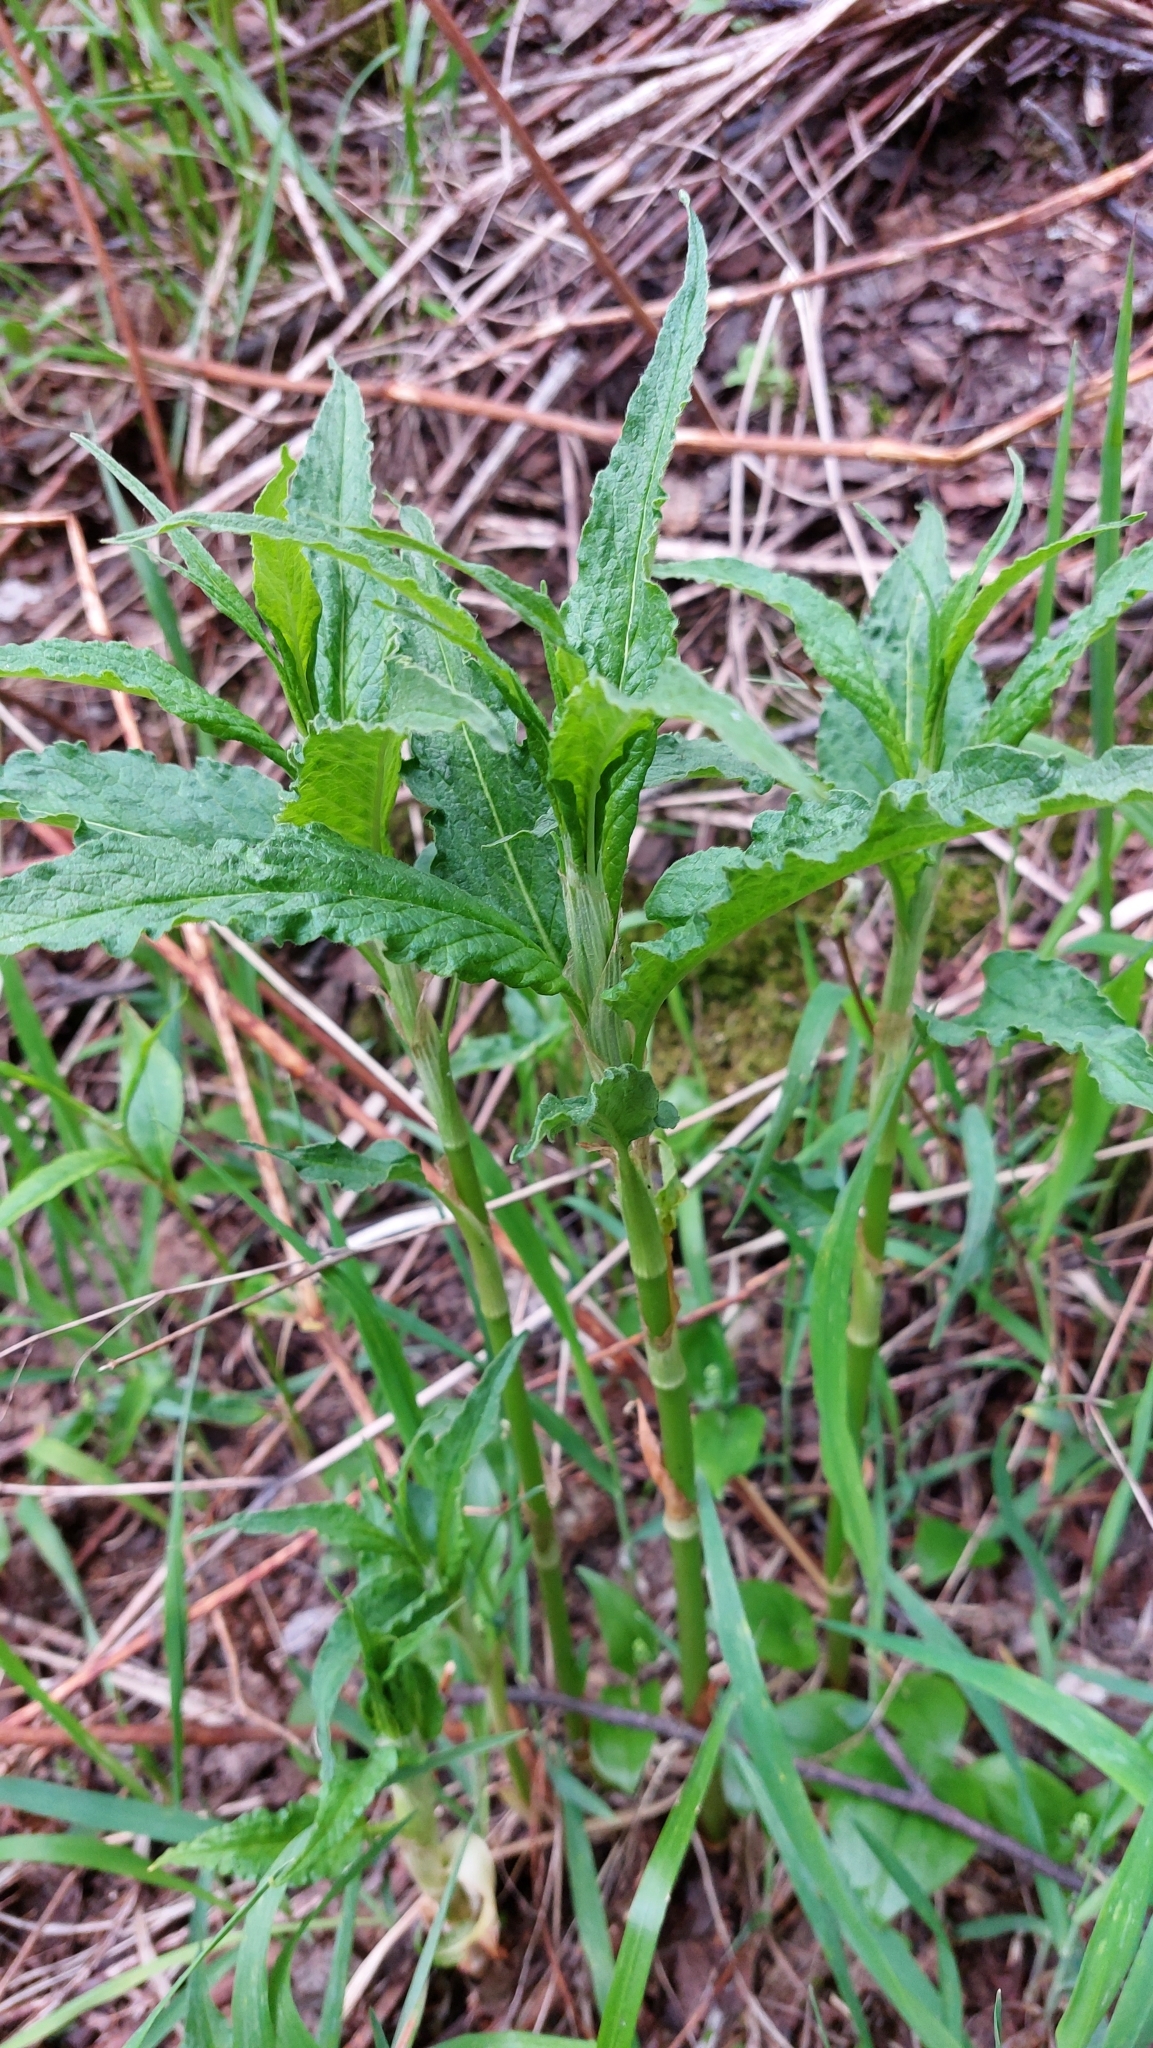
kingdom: Plantae
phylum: Tracheophyta
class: Magnoliopsida
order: Caryophyllales
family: Polygonaceae
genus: Koenigia
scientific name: Koenigia alpina
